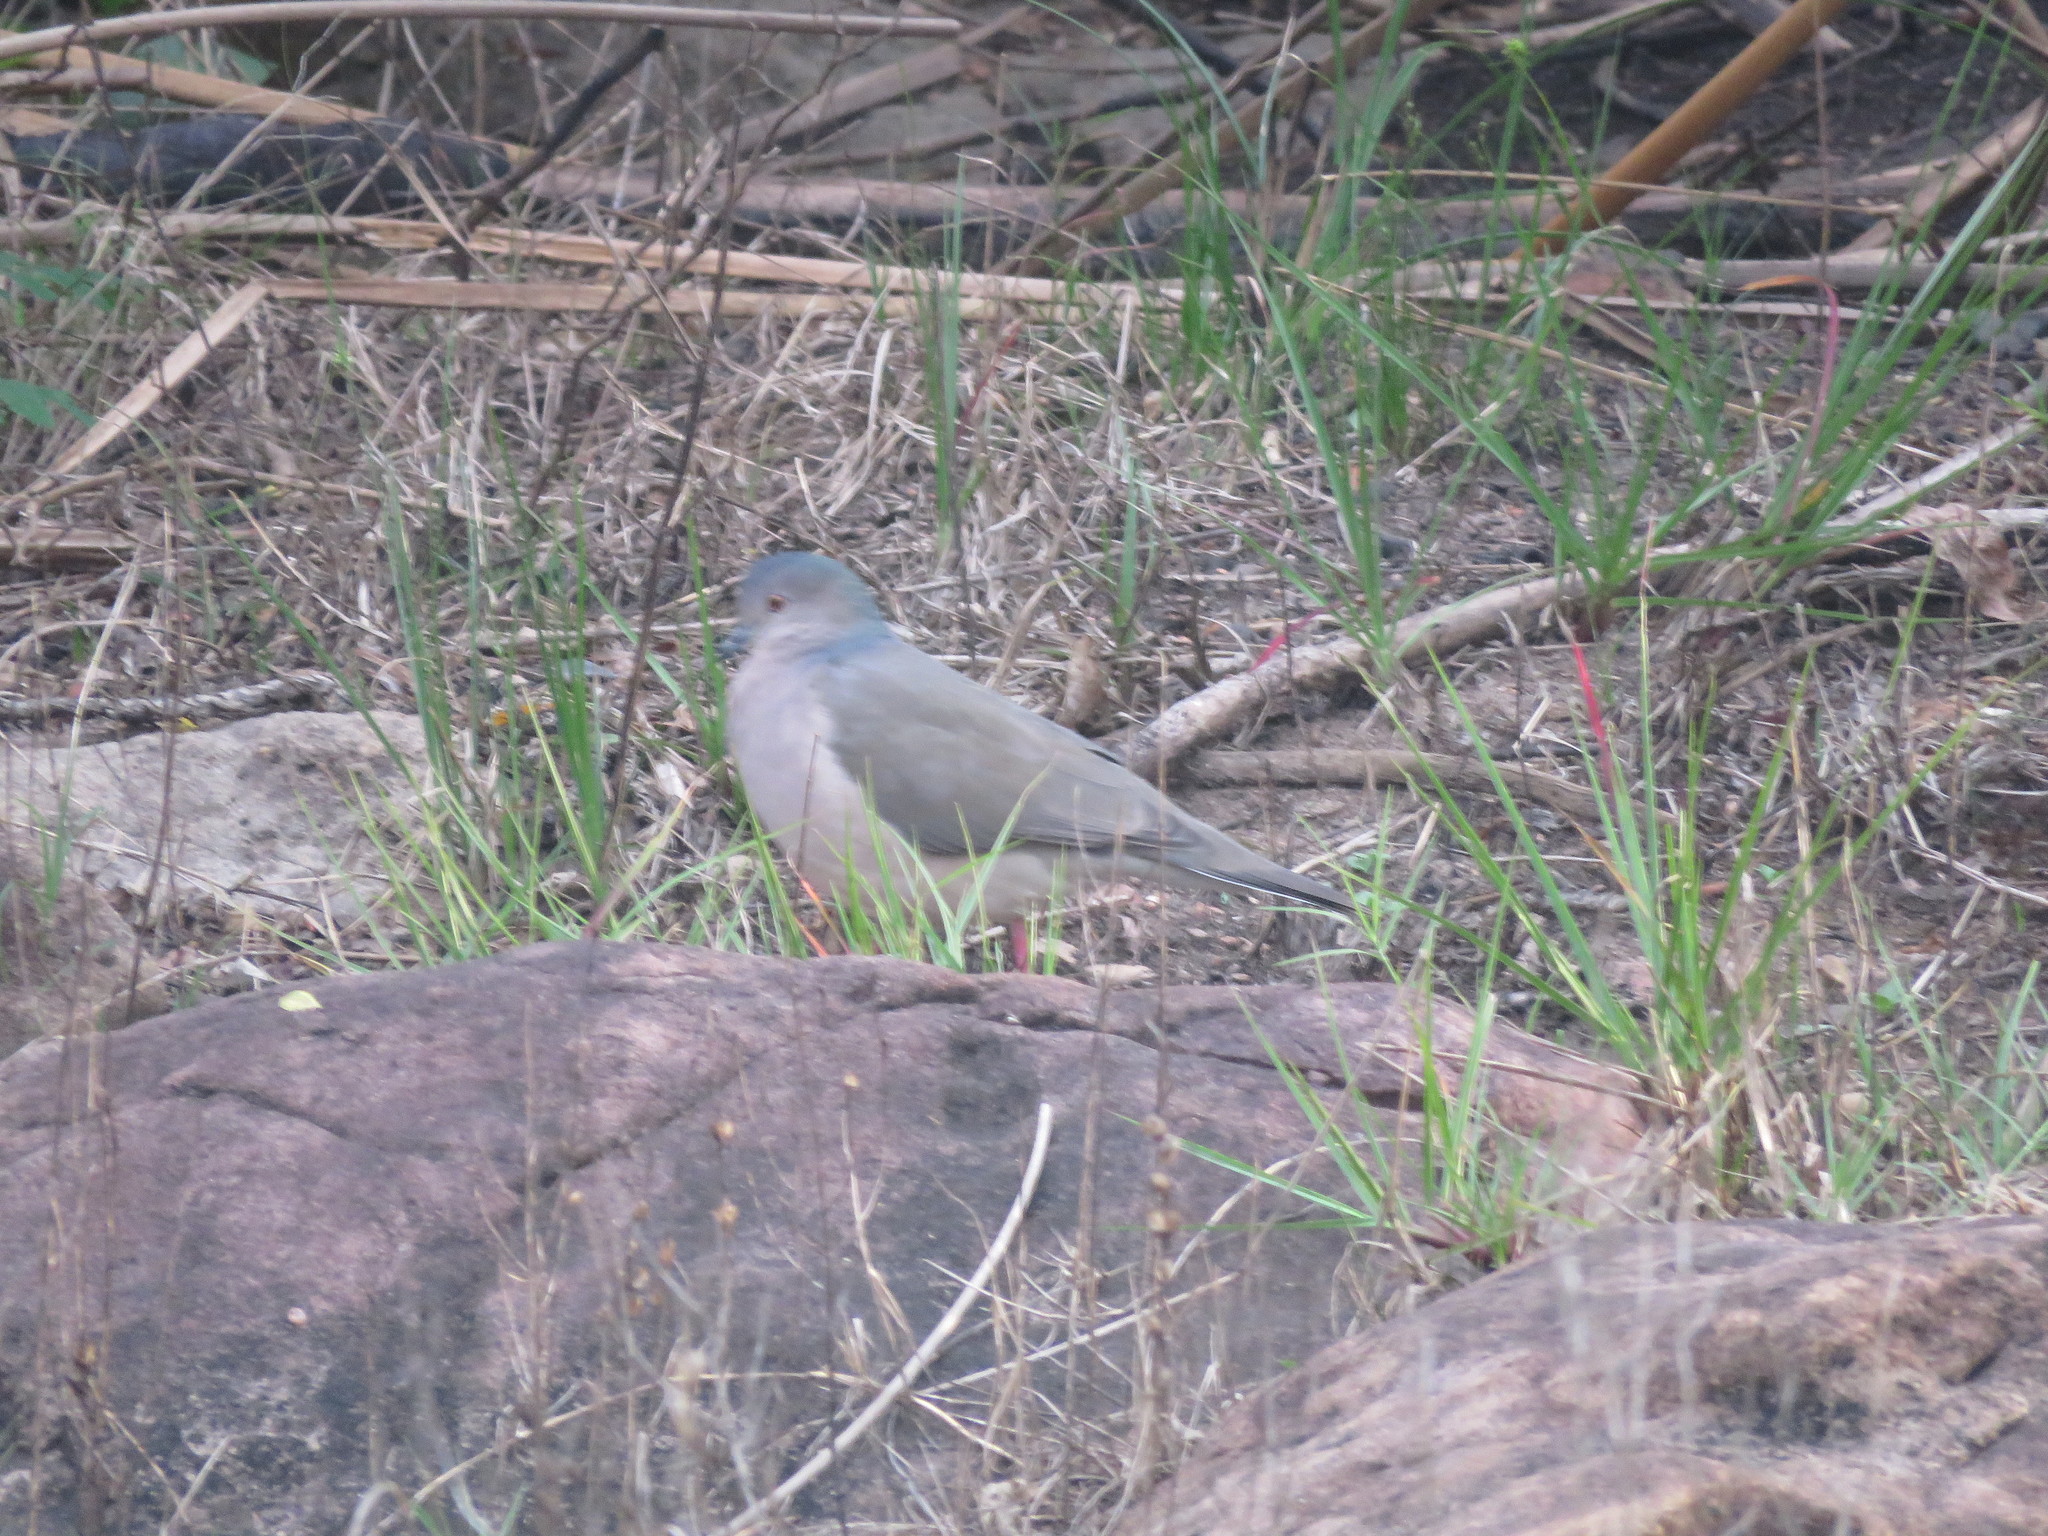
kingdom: Animalia
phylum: Chordata
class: Aves
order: Columbiformes
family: Columbidae
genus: Leptotila
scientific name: Leptotila verreauxi
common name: White-tipped dove
